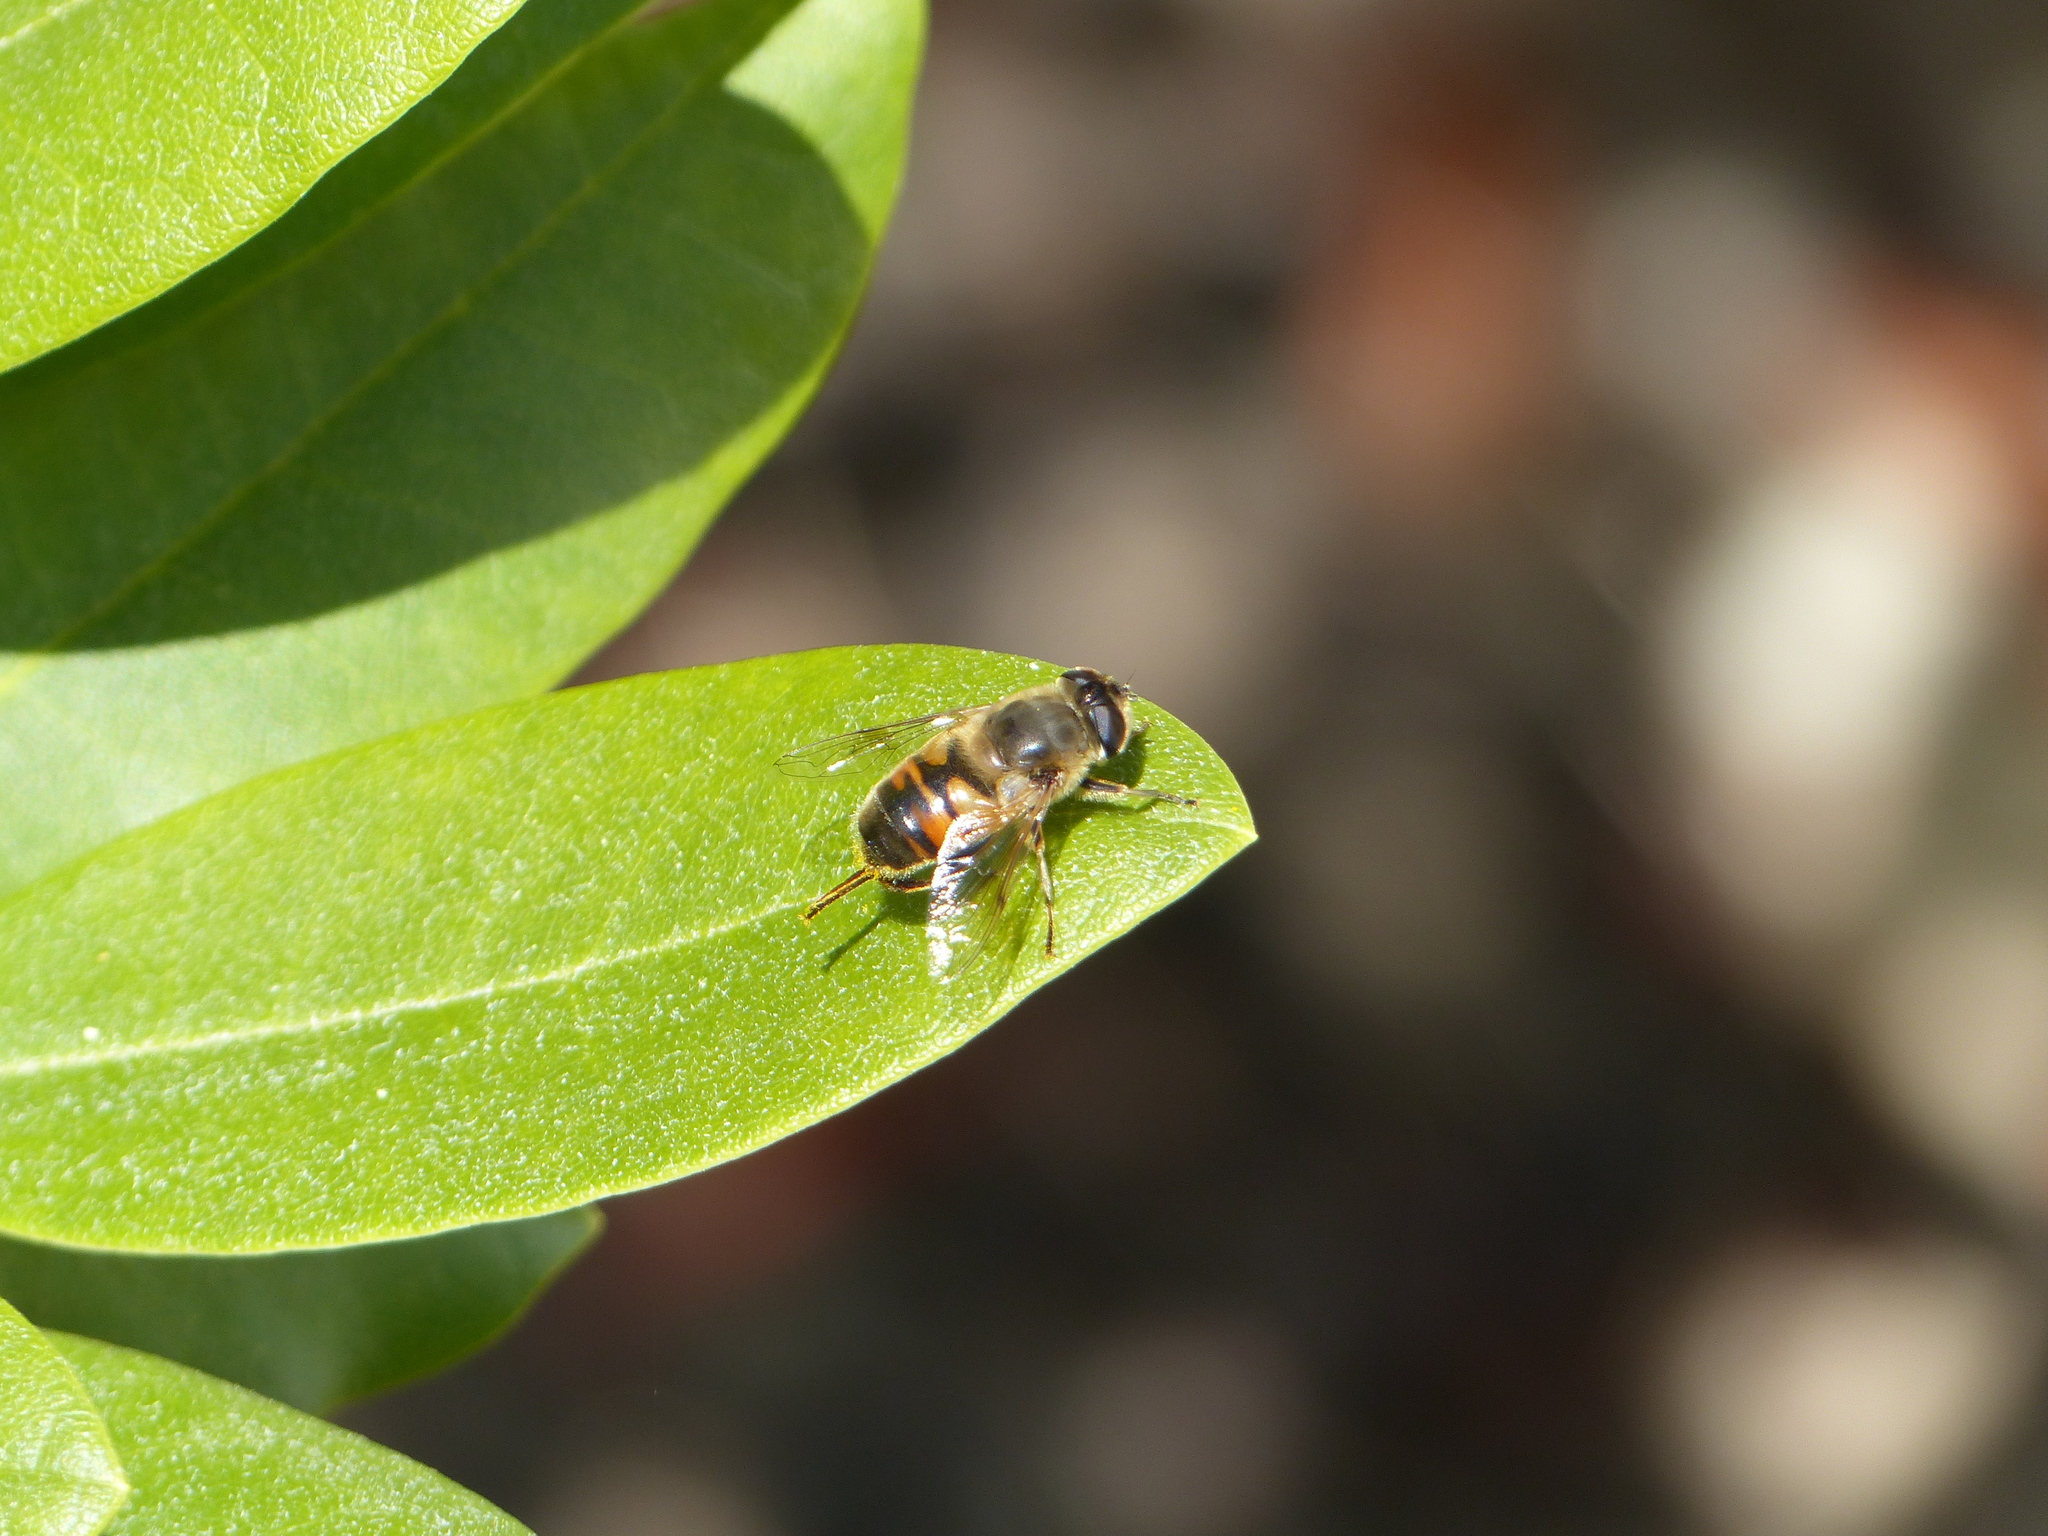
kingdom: Animalia
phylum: Arthropoda
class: Insecta
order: Diptera
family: Syrphidae
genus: Eristalis
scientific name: Eristalis tenax
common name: Drone fly
